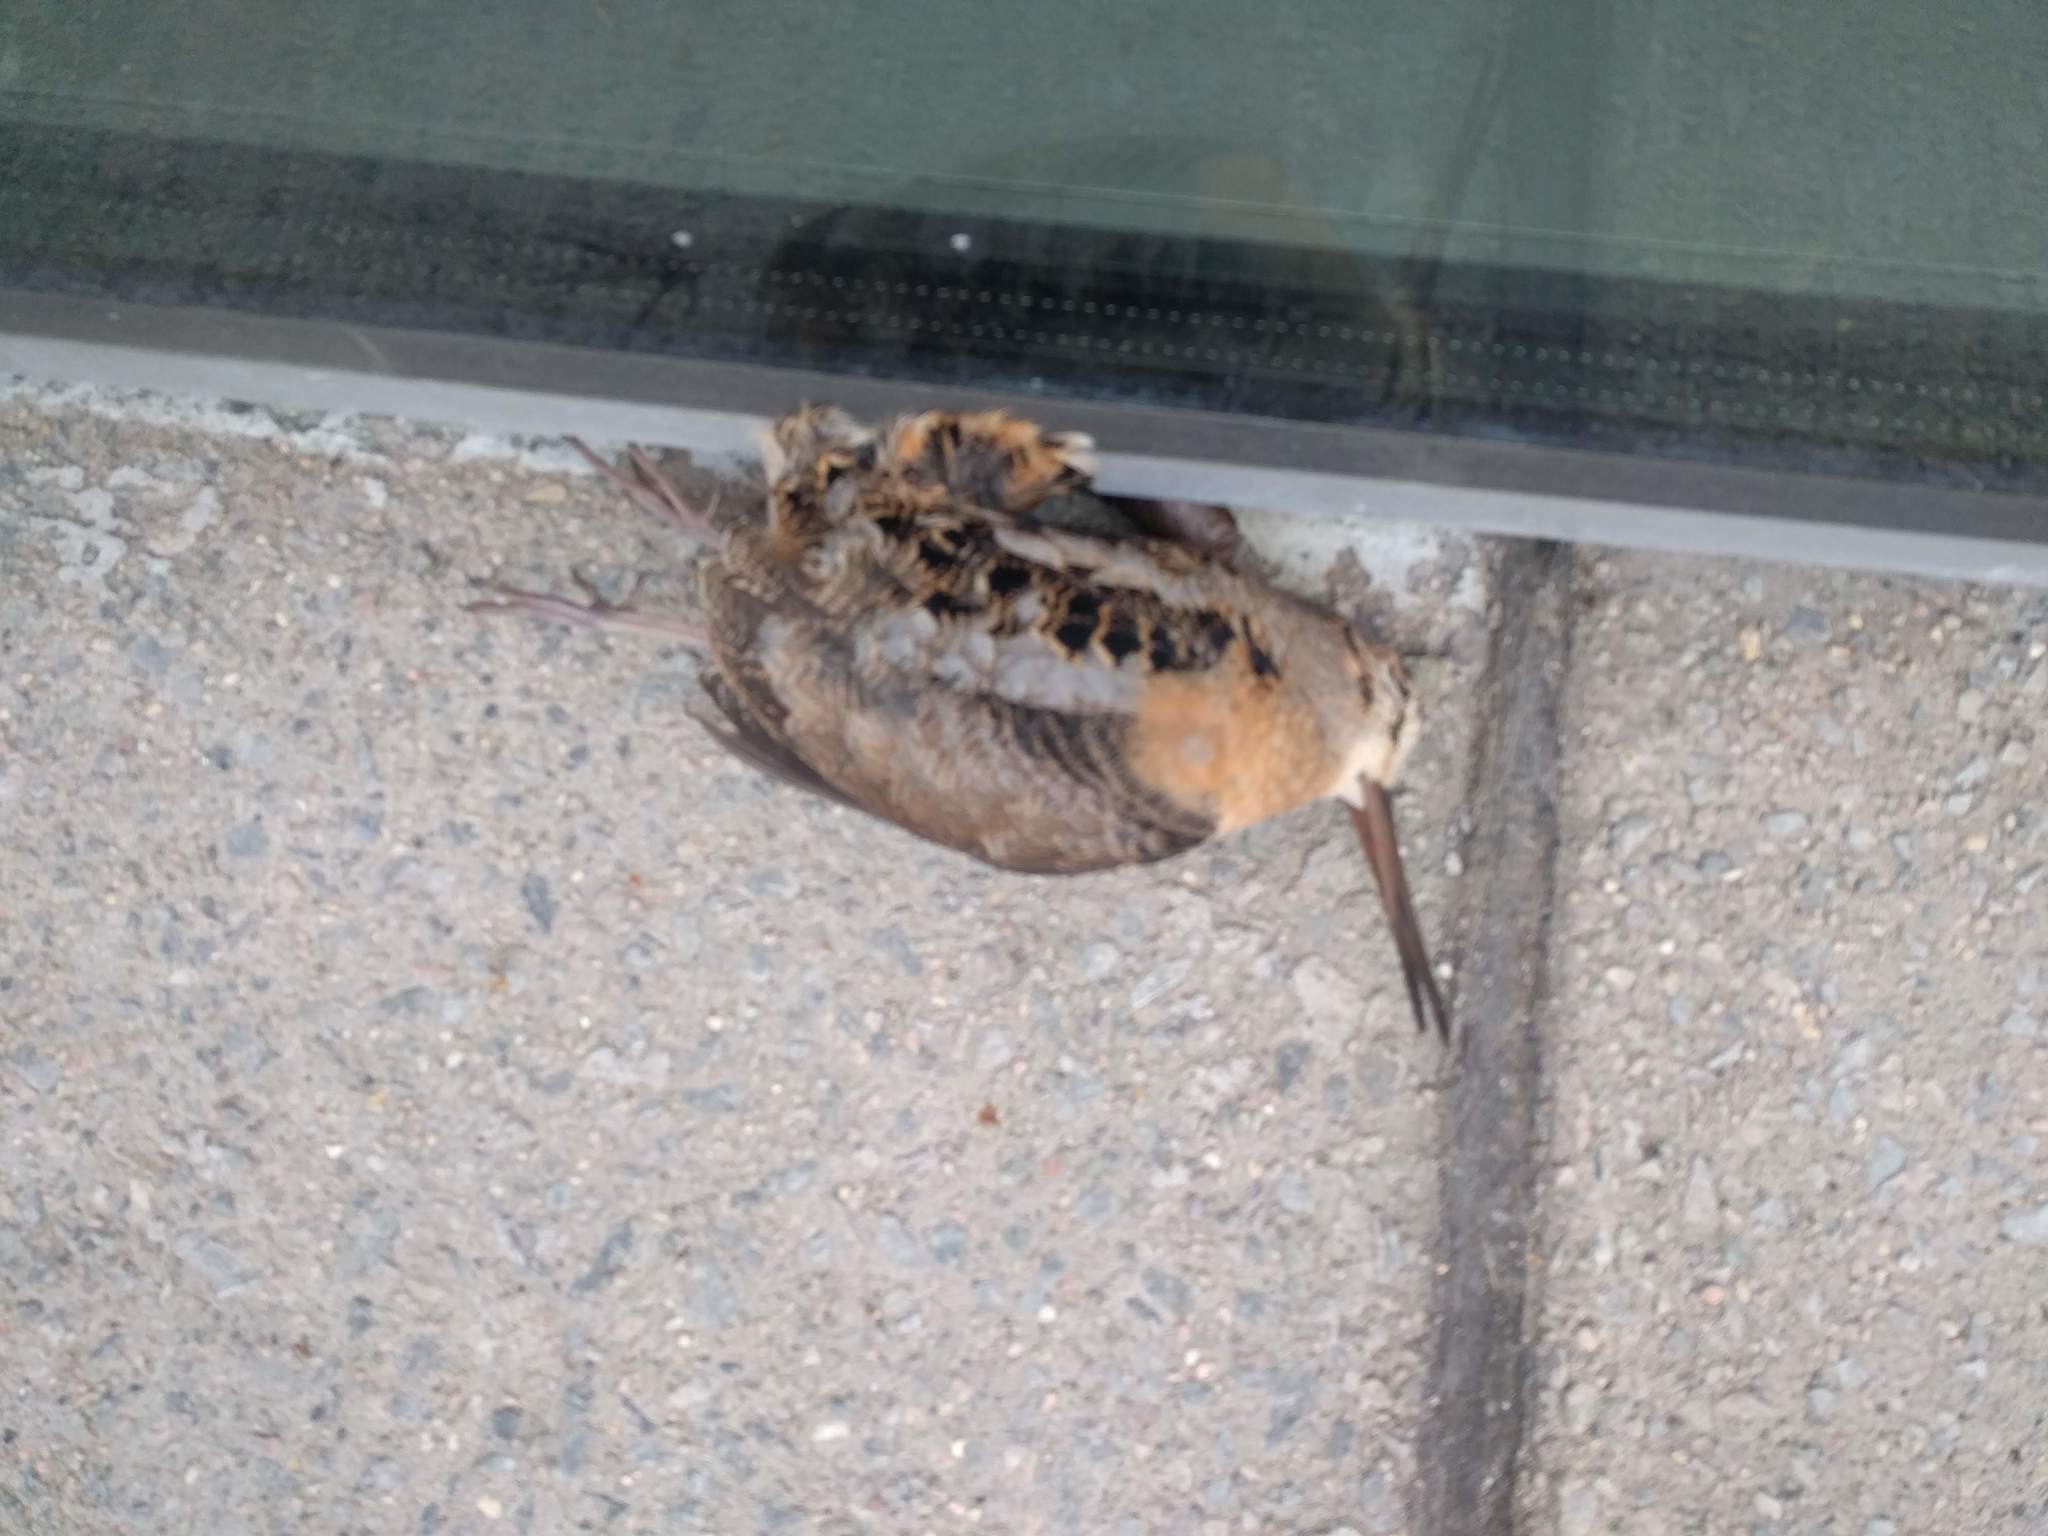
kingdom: Animalia
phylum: Chordata
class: Aves
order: Charadriiformes
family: Scolopacidae
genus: Scolopax
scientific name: Scolopax minor
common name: American woodcock
